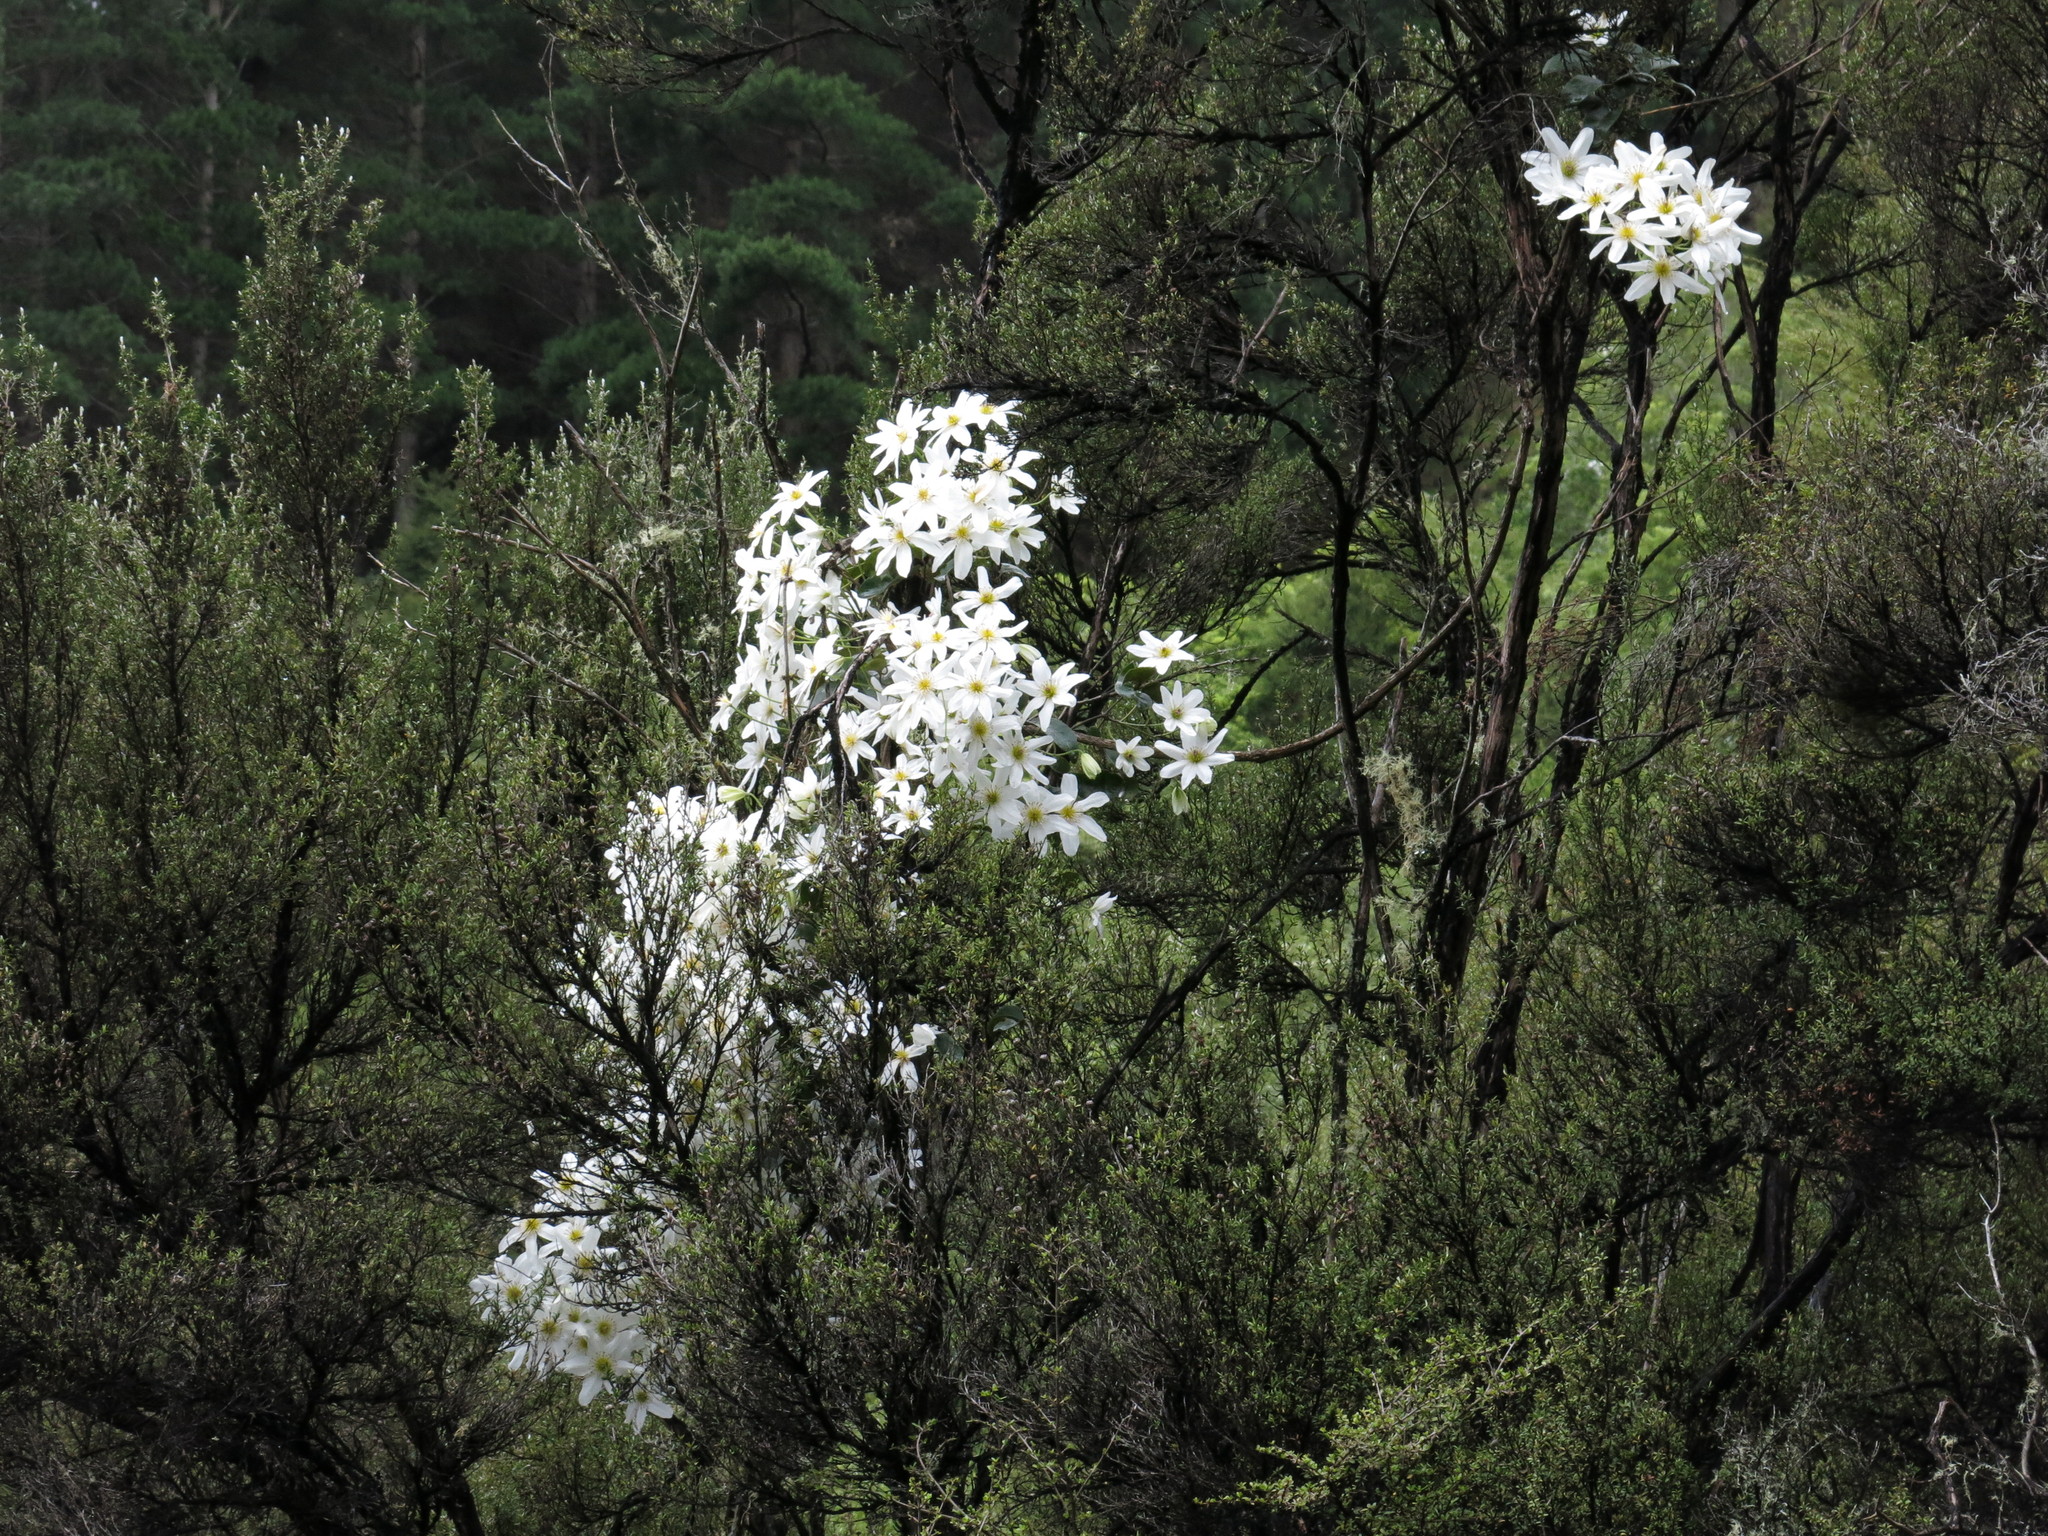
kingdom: Plantae
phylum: Tracheophyta
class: Magnoliopsida
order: Ranunculales
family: Ranunculaceae
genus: Clematis
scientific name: Clematis paniculata
